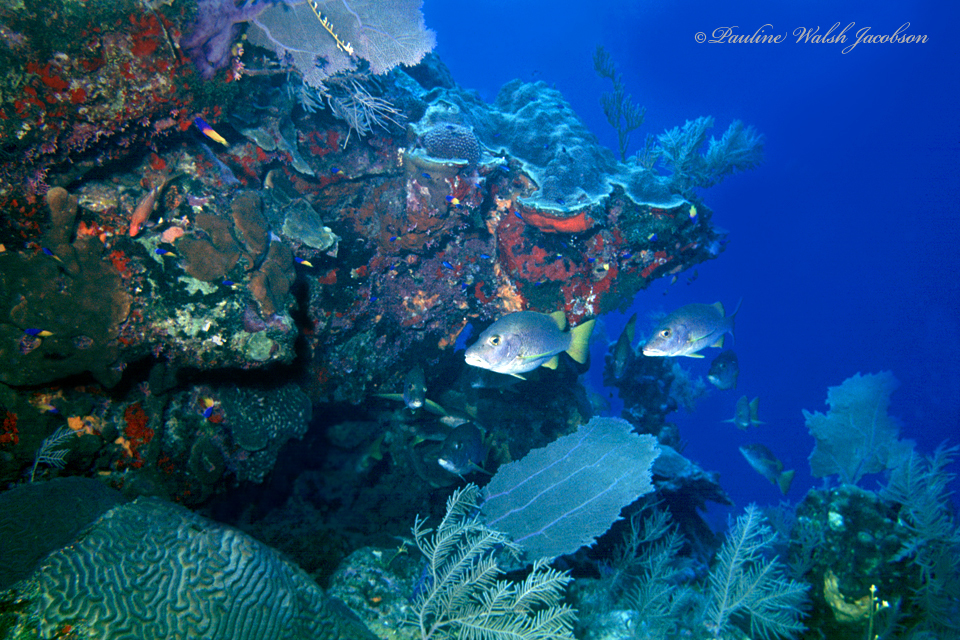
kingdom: Animalia
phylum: Chordata
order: Perciformes
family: Lutjanidae
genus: Lutjanus
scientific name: Lutjanus apodus
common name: Schoolmaster
